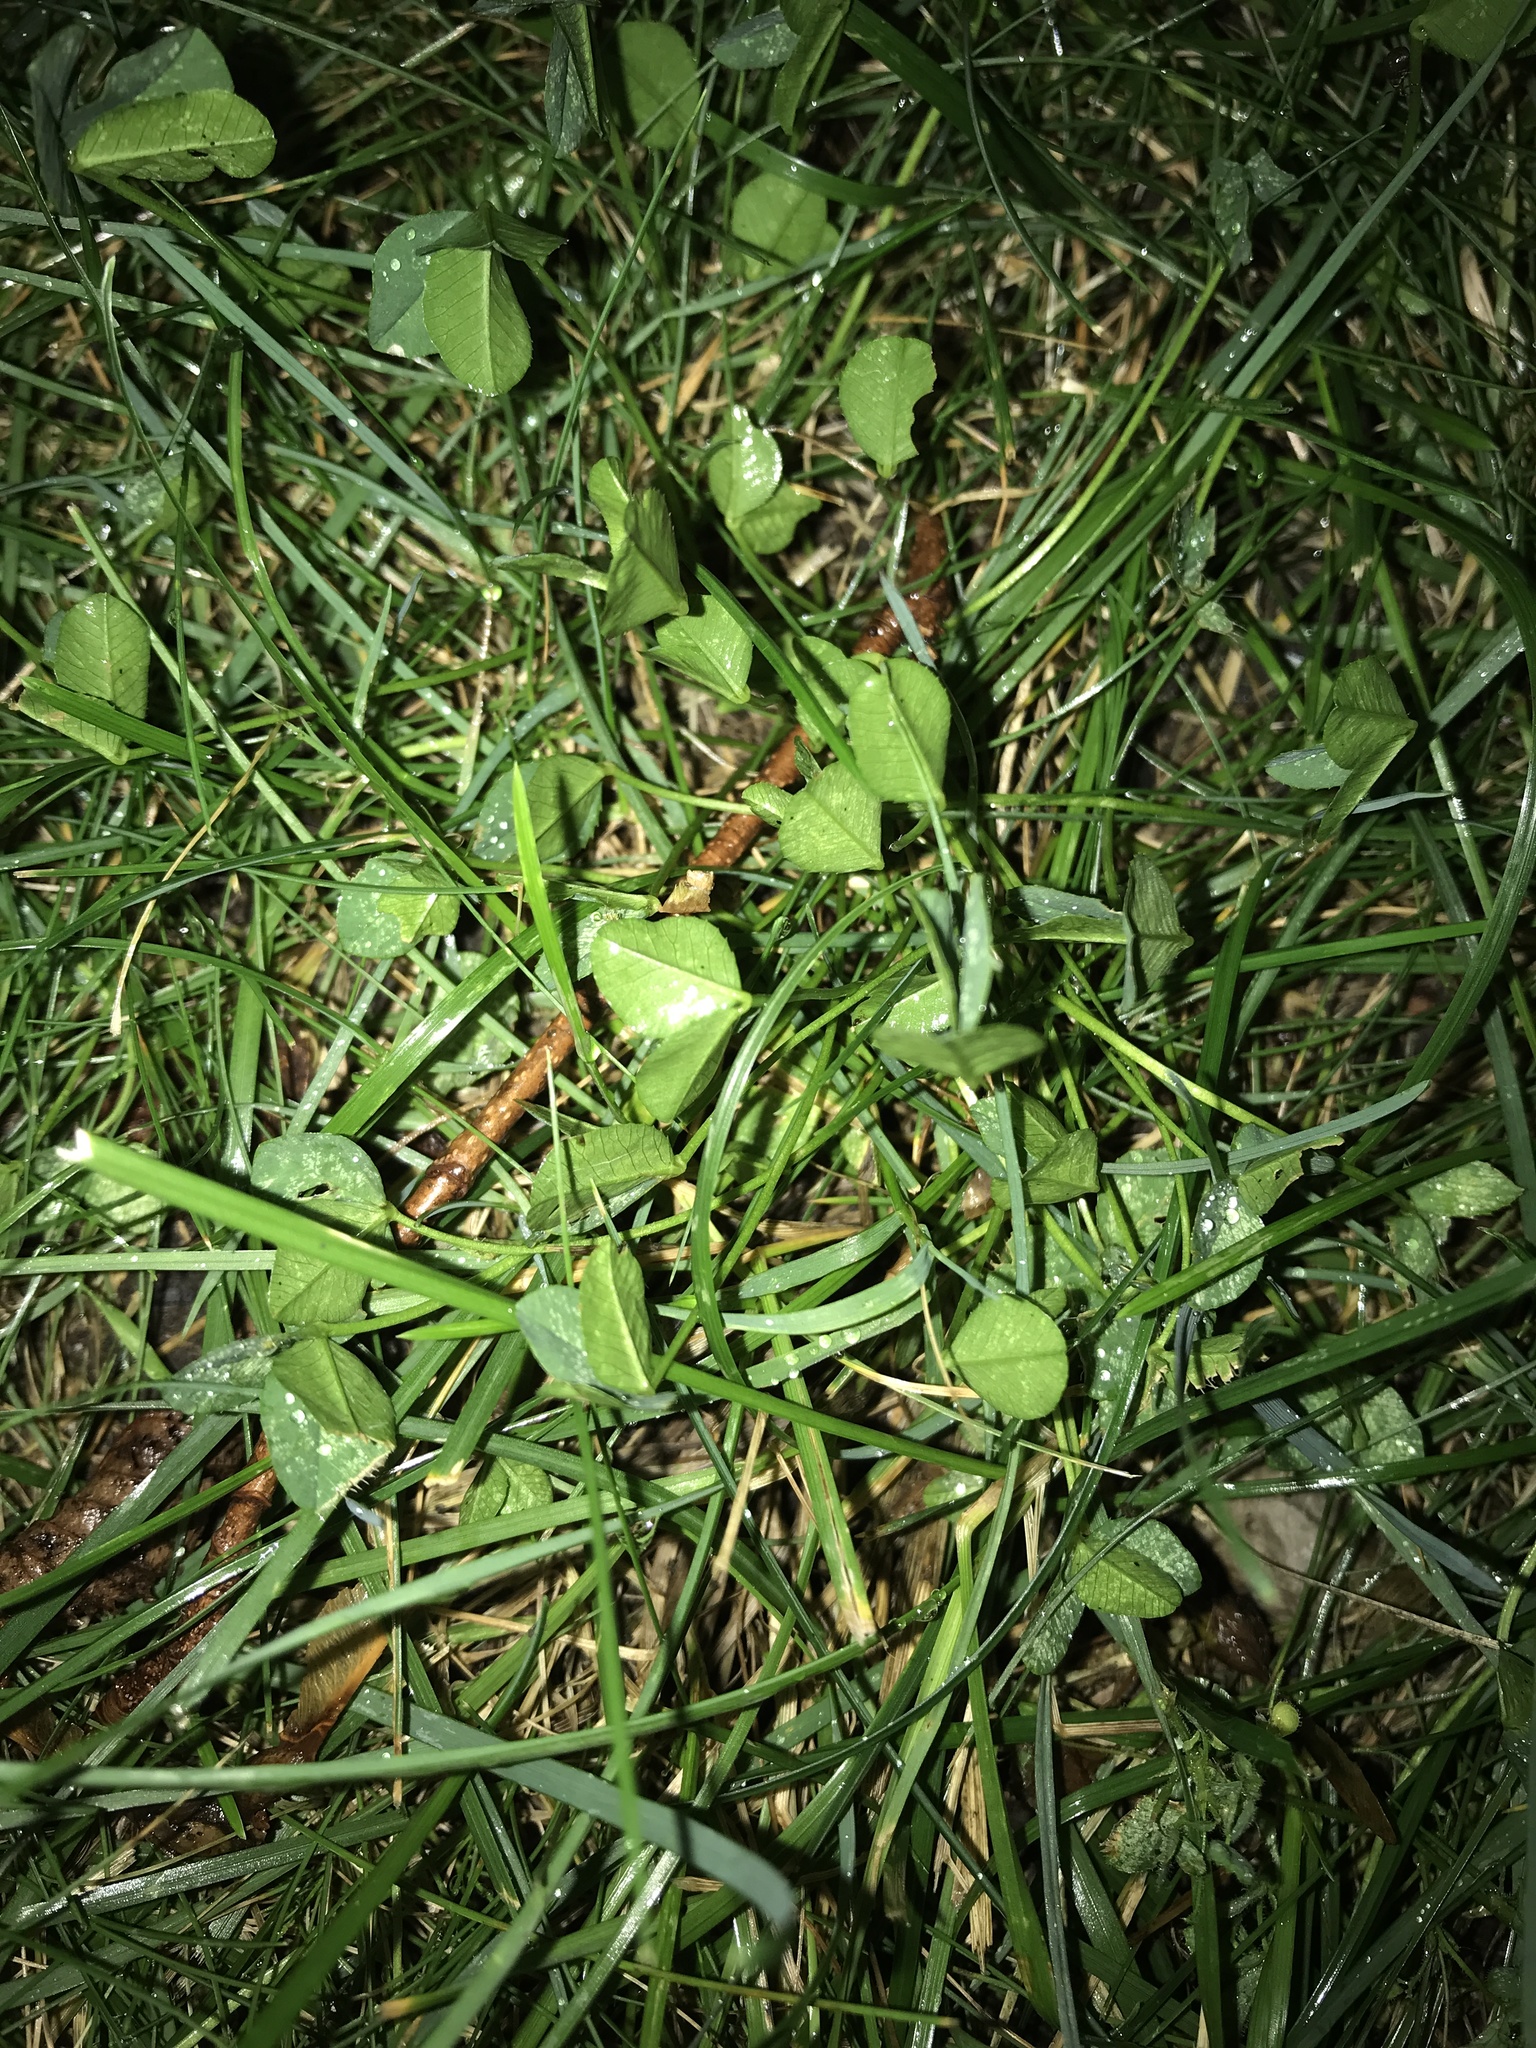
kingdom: Plantae
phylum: Tracheophyta
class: Magnoliopsida
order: Fabales
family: Fabaceae
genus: Trifolium
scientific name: Trifolium repens
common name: White clover
